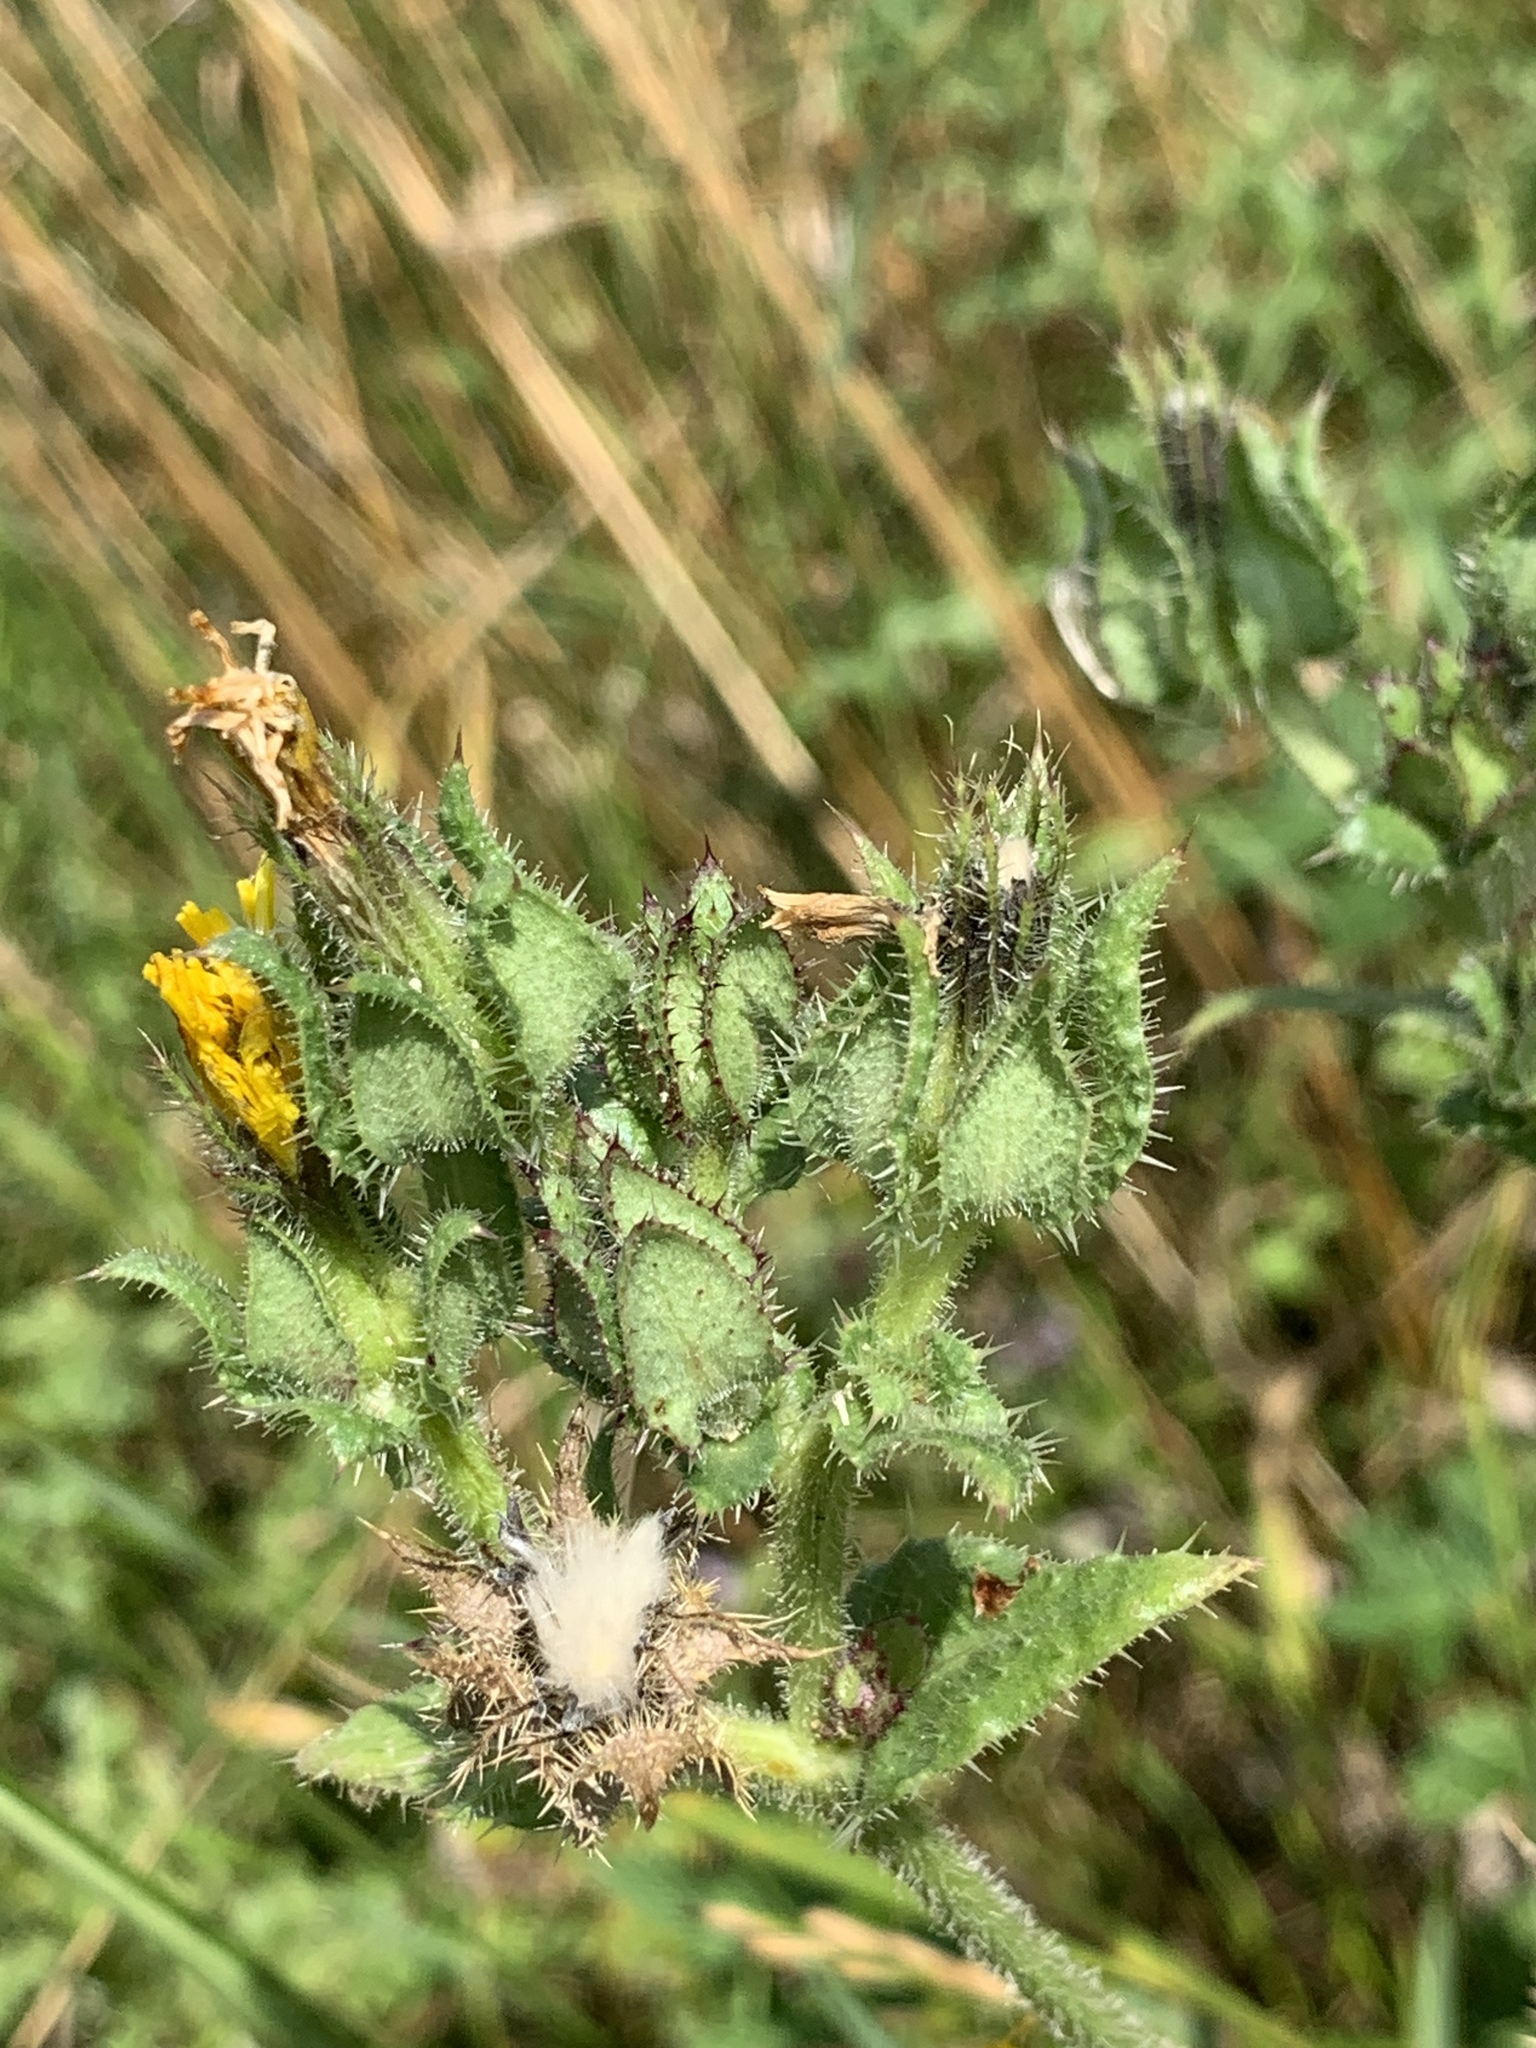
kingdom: Plantae
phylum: Tracheophyta
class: Magnoliopsida
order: Asterales
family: Asteraceae
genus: Helminthotheca
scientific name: Helminthotheca echioides
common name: Ox-tongue
